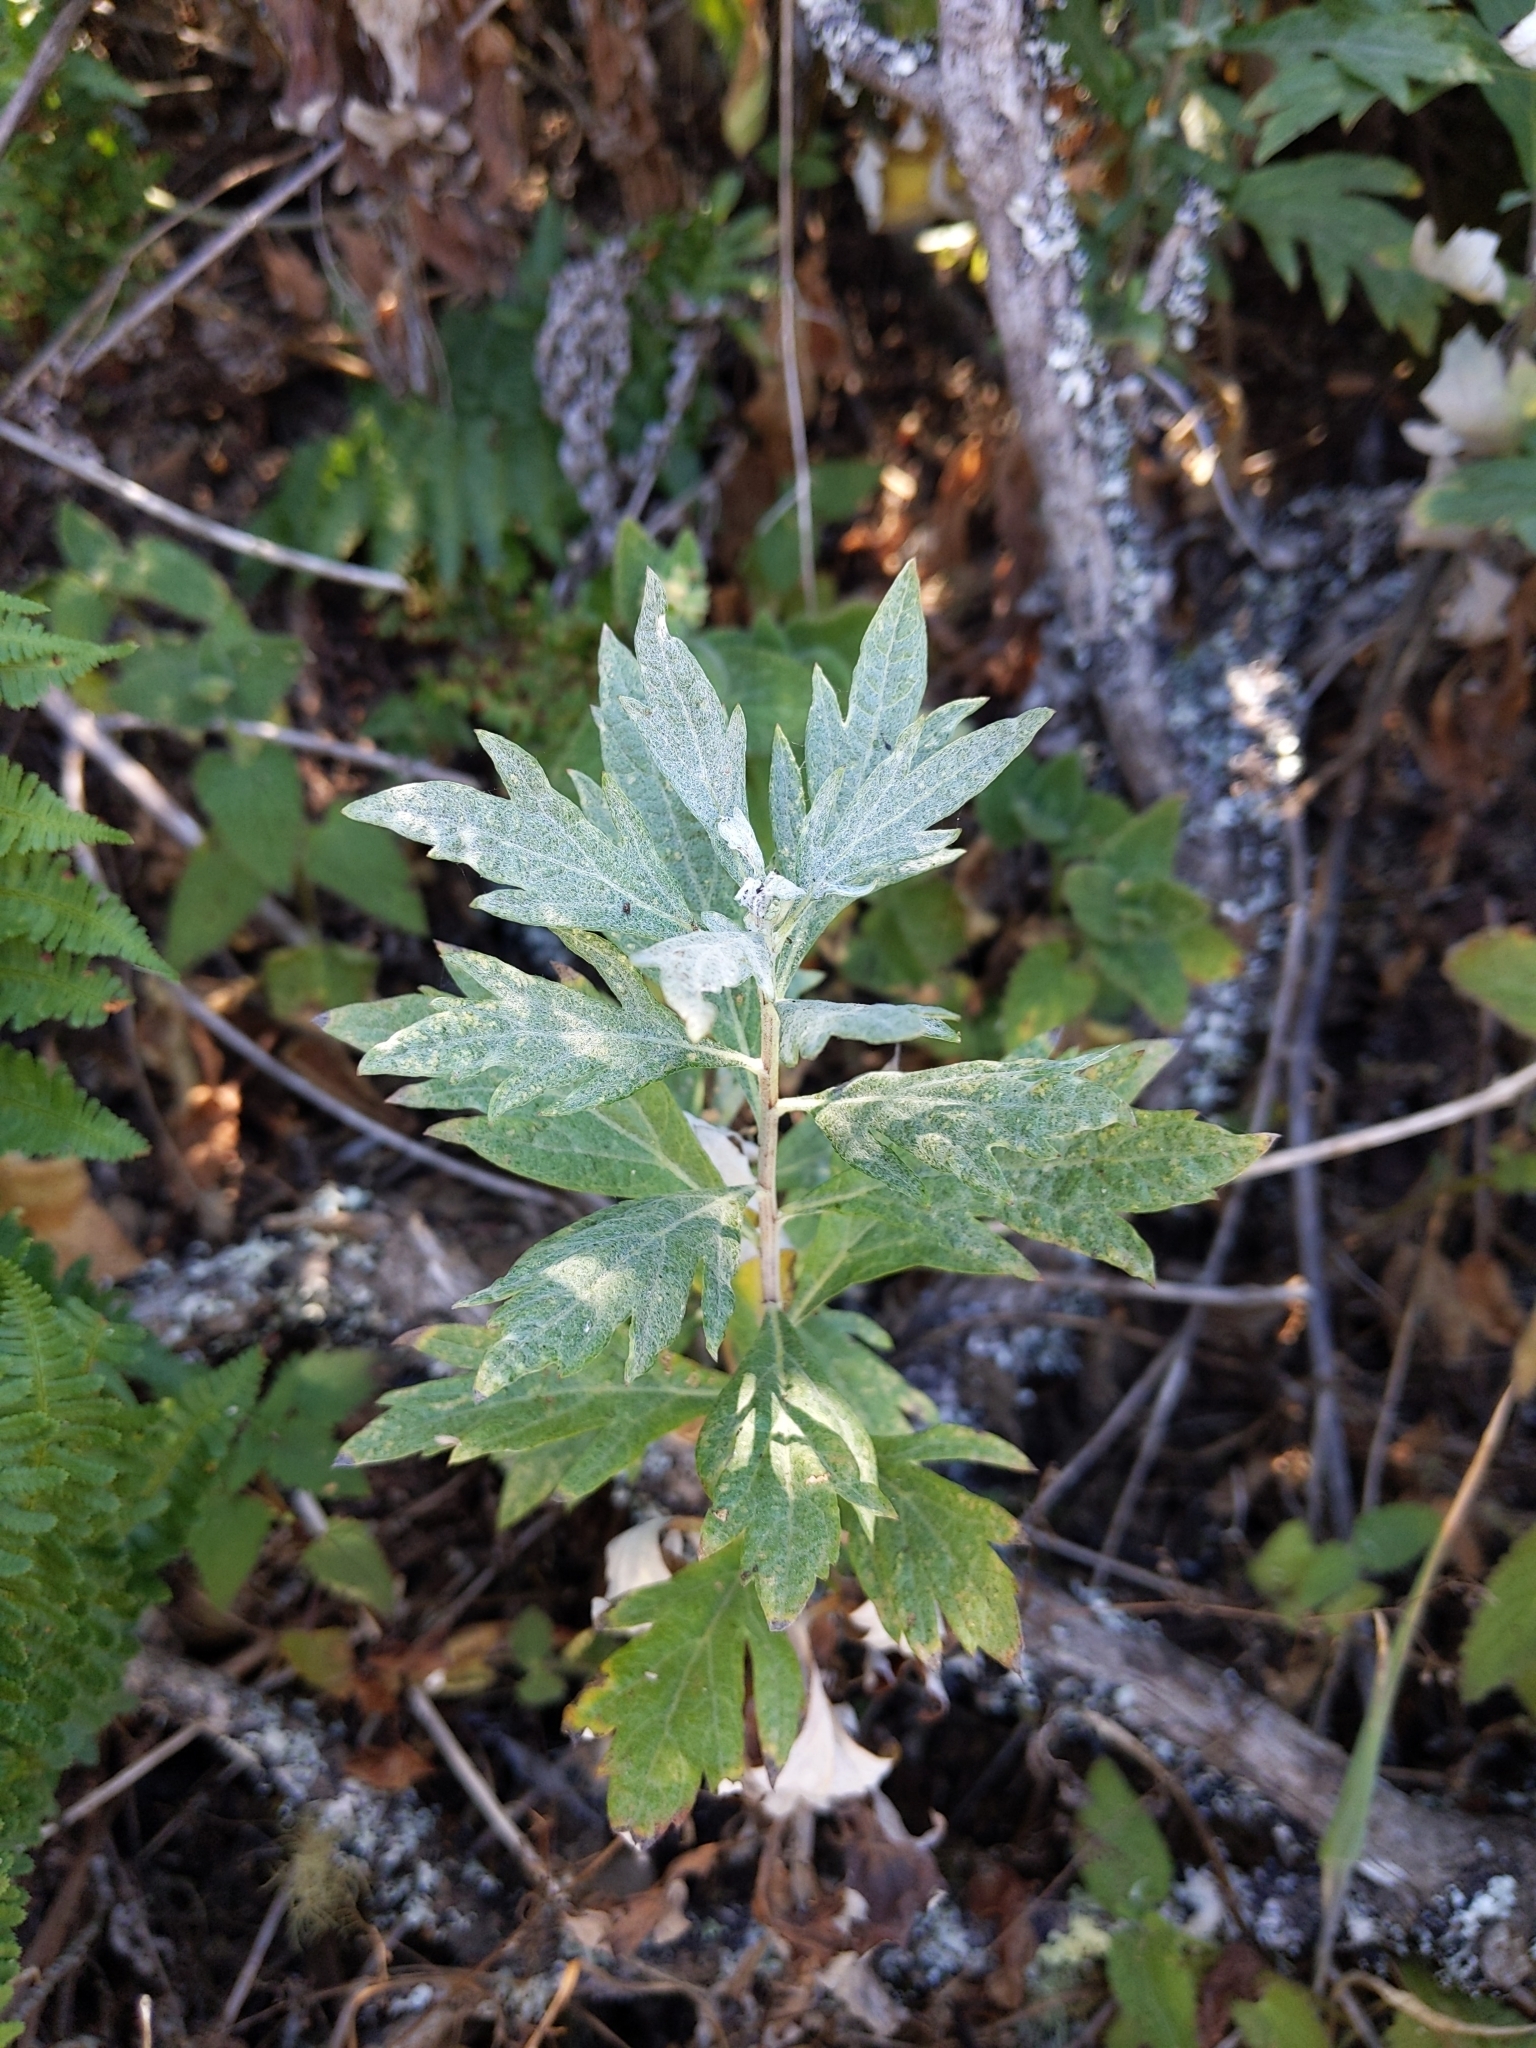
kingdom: Plantae
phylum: Tracheophyta
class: Magnoliopsida
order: Asterales
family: Asteraceae
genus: Artemisia
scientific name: Artemisia douglasiana
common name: Northwest mugwort
